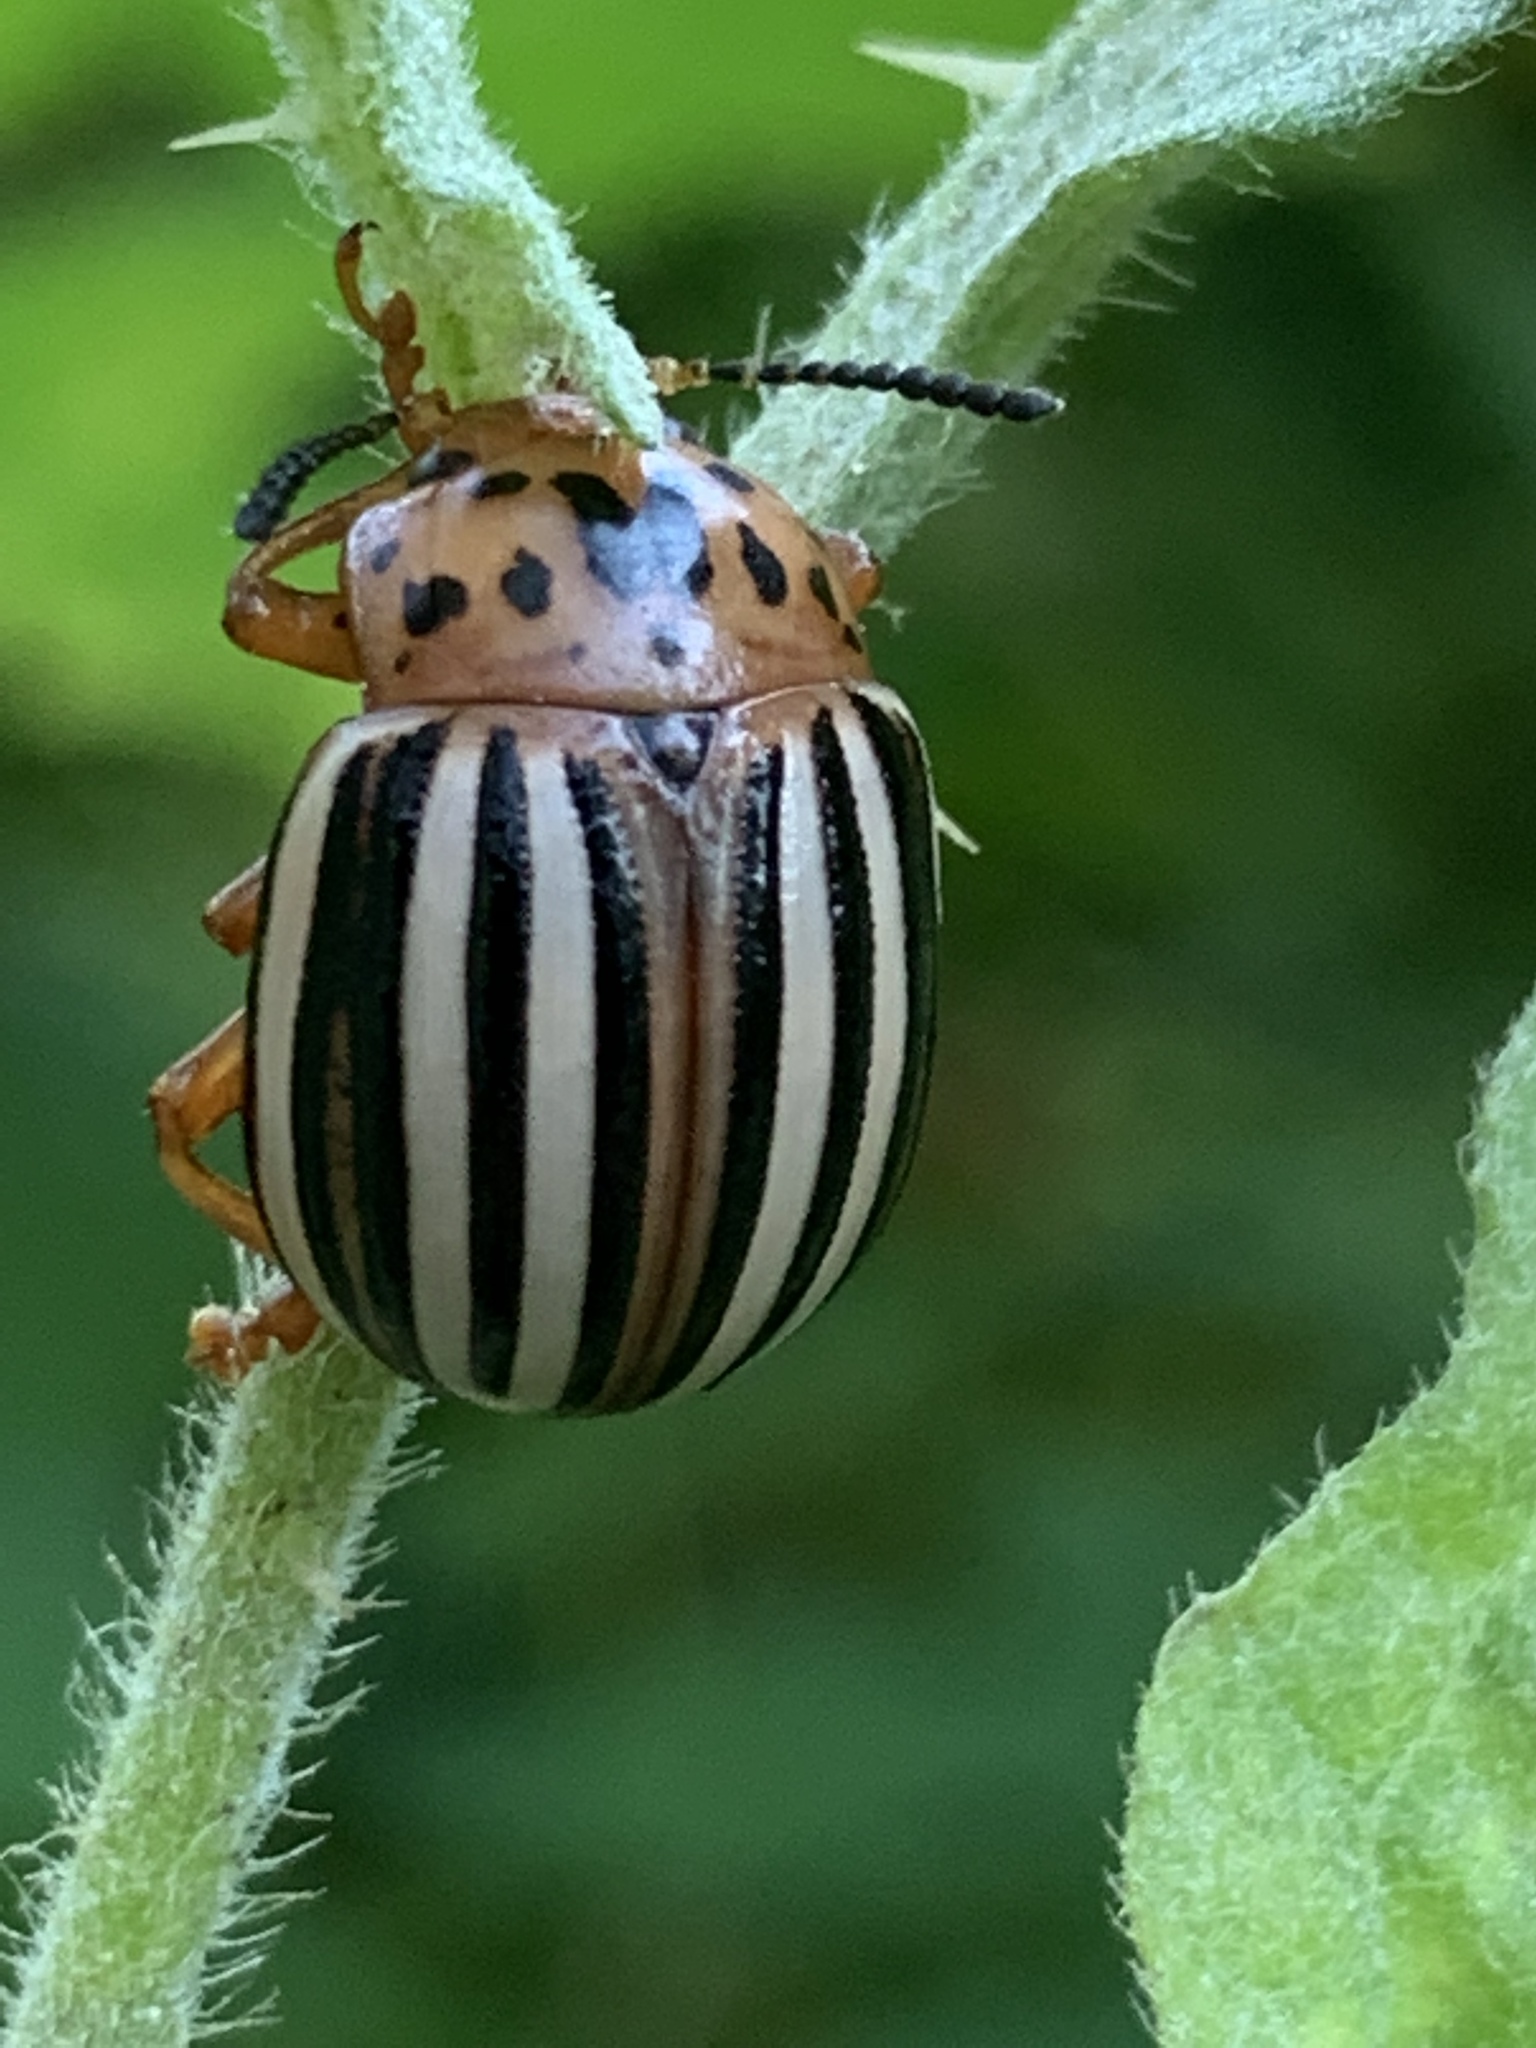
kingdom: Animalia
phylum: Arthropoda
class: Insecta
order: Coleoptera
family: Chrysomelidae
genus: Leptinotarsa
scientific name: Leptinotarsa juncta
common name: False potato beetle
